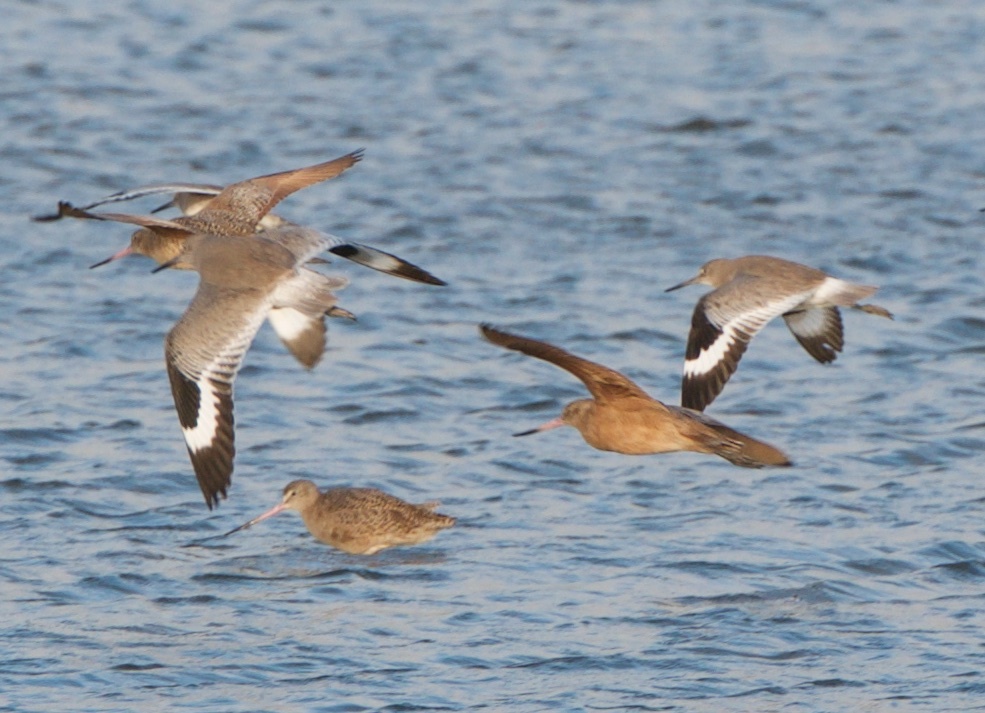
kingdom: Animalia
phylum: Chordata
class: Aves
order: Charadriiformes
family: Scolopacidae
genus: Tringa
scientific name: Tringa semipalmata
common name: Willet
